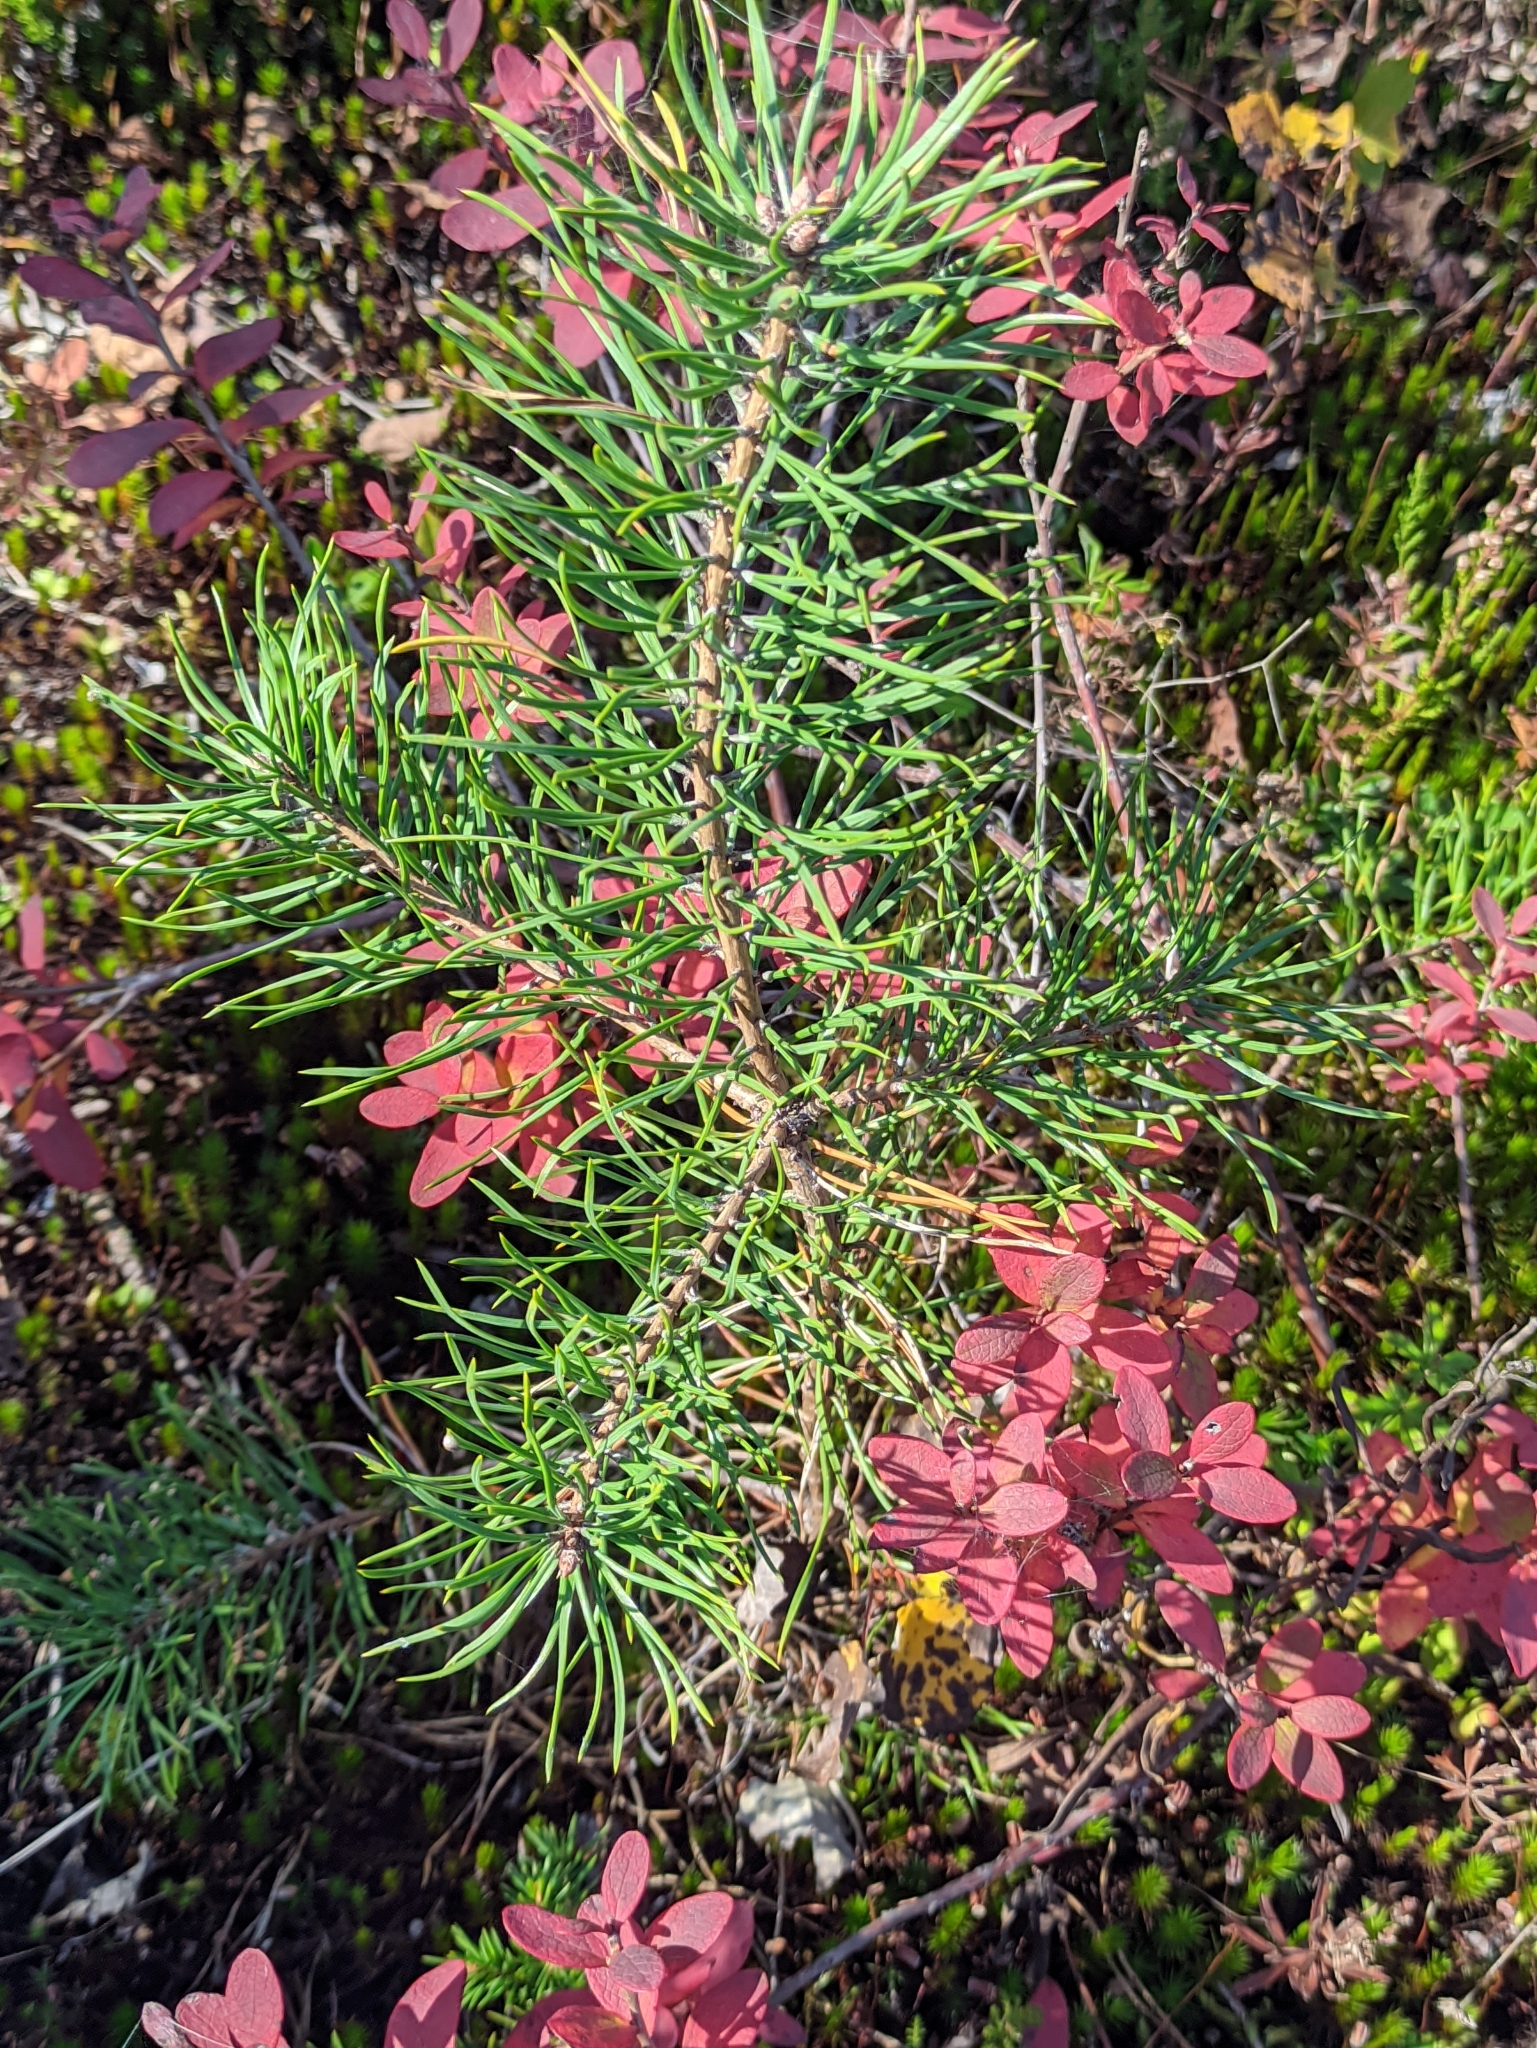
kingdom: Plantae
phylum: Tracheophyta
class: Pinopsida
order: Pinales
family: Pinaceae
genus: Pinus
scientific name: Pinus sylvestris
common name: Scots pine
